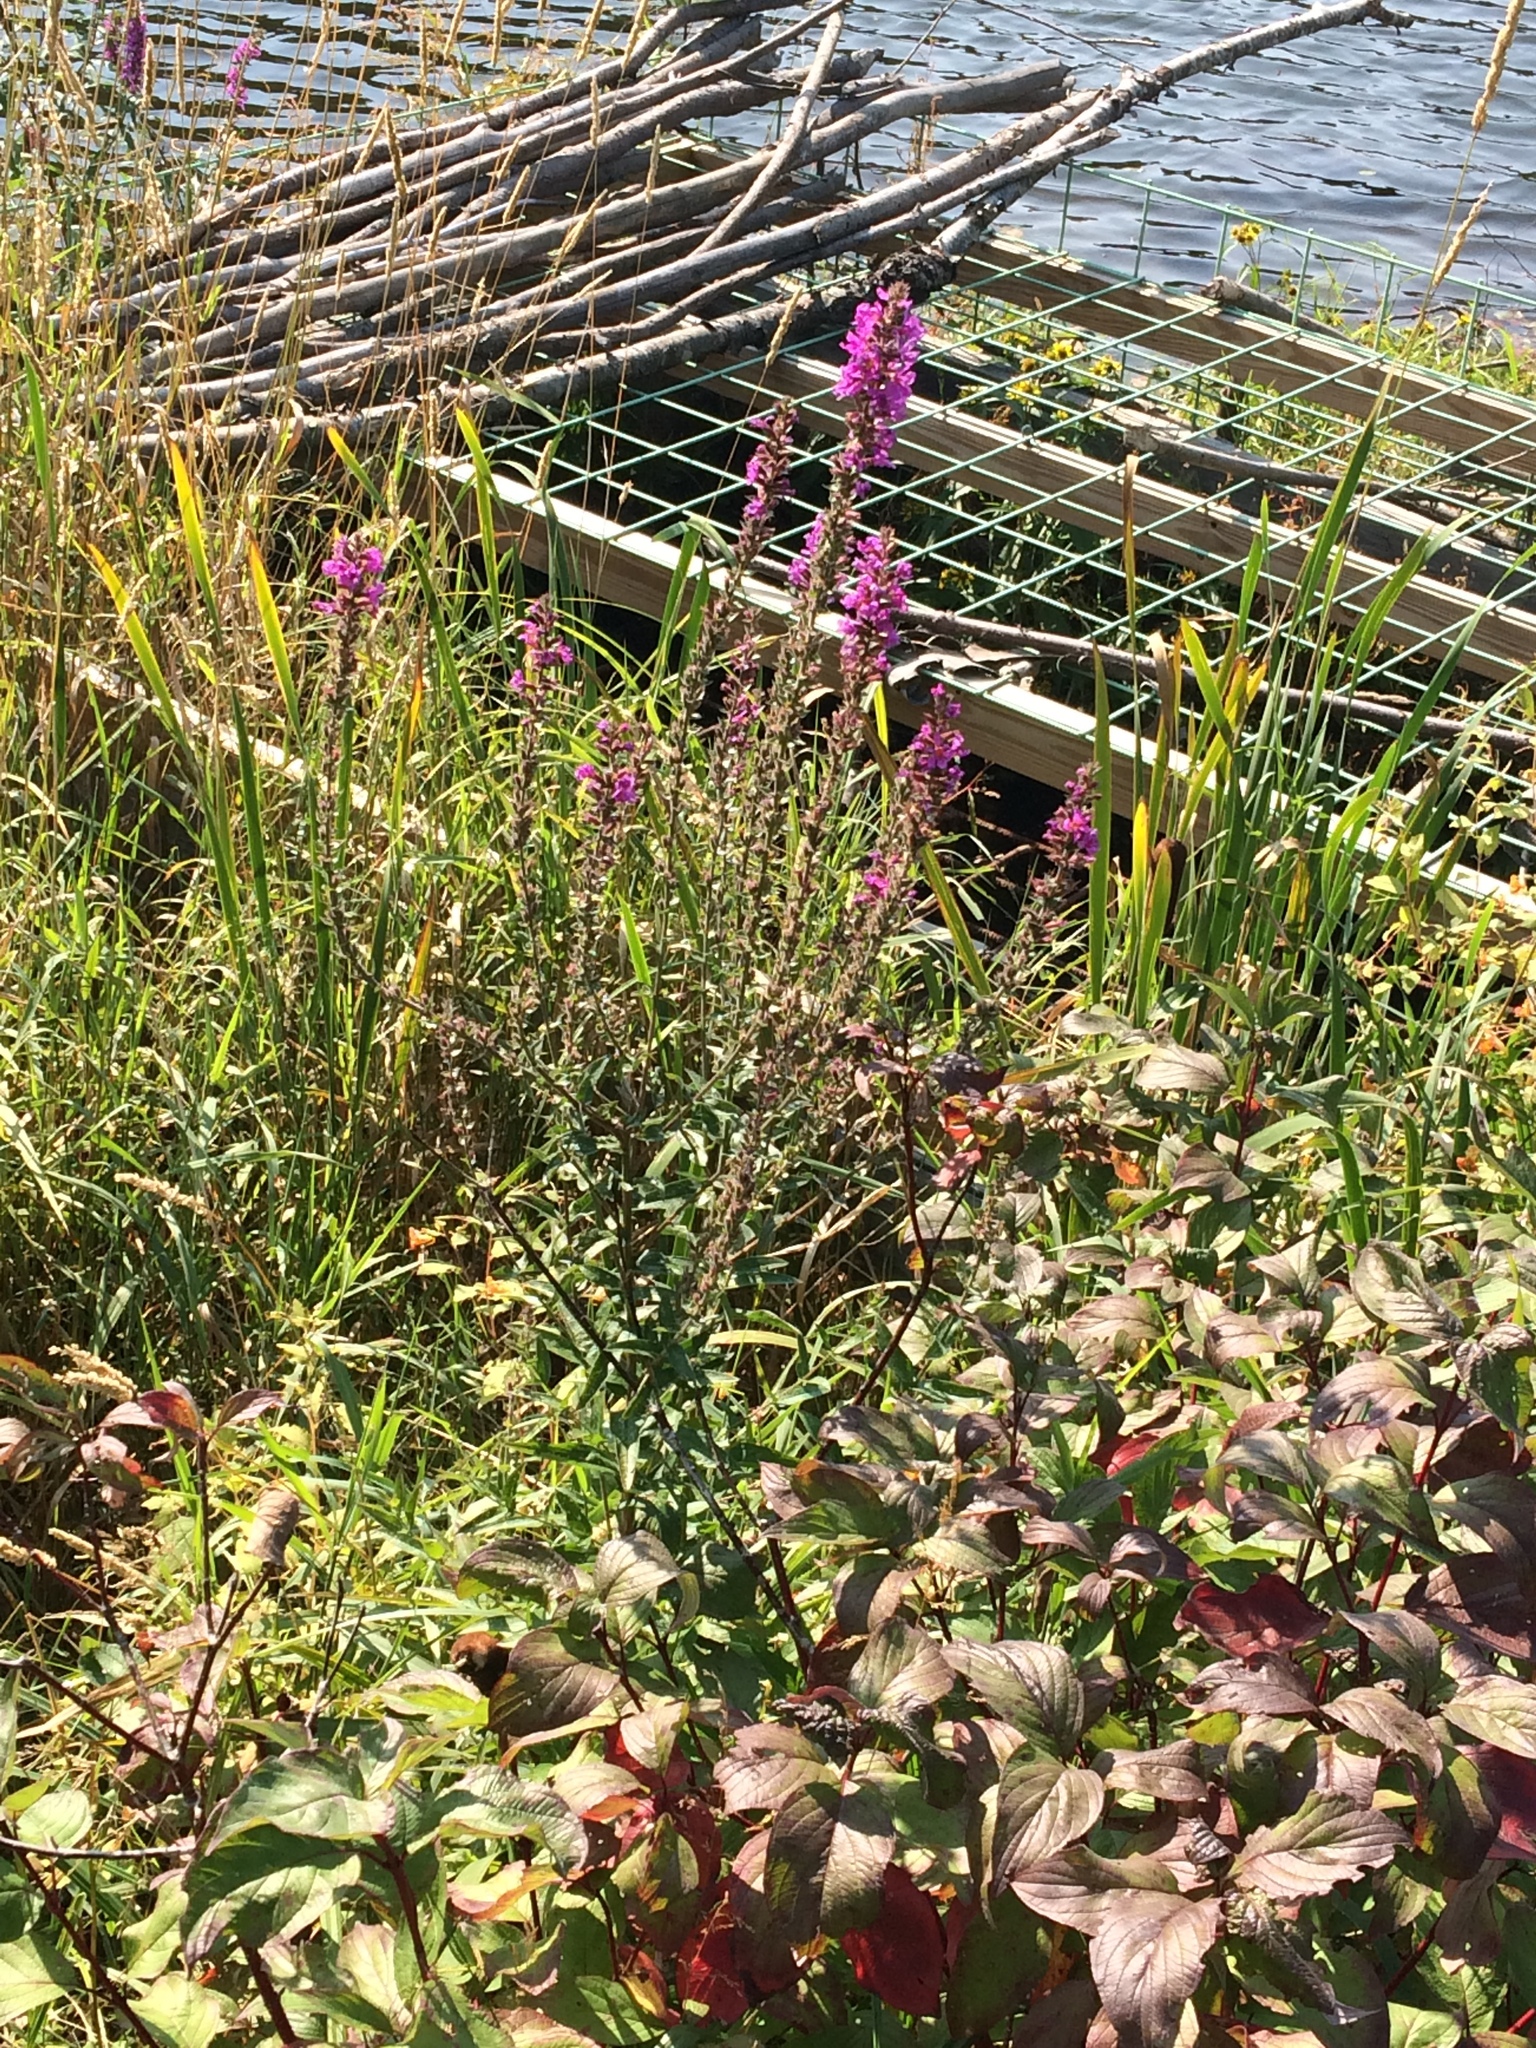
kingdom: Plantae
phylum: Tracheophyta
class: Magnoliopsida
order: Myrtales
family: Lythraceae
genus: Lythrum
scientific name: Lythrum salicaria
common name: Purple loosestrife
